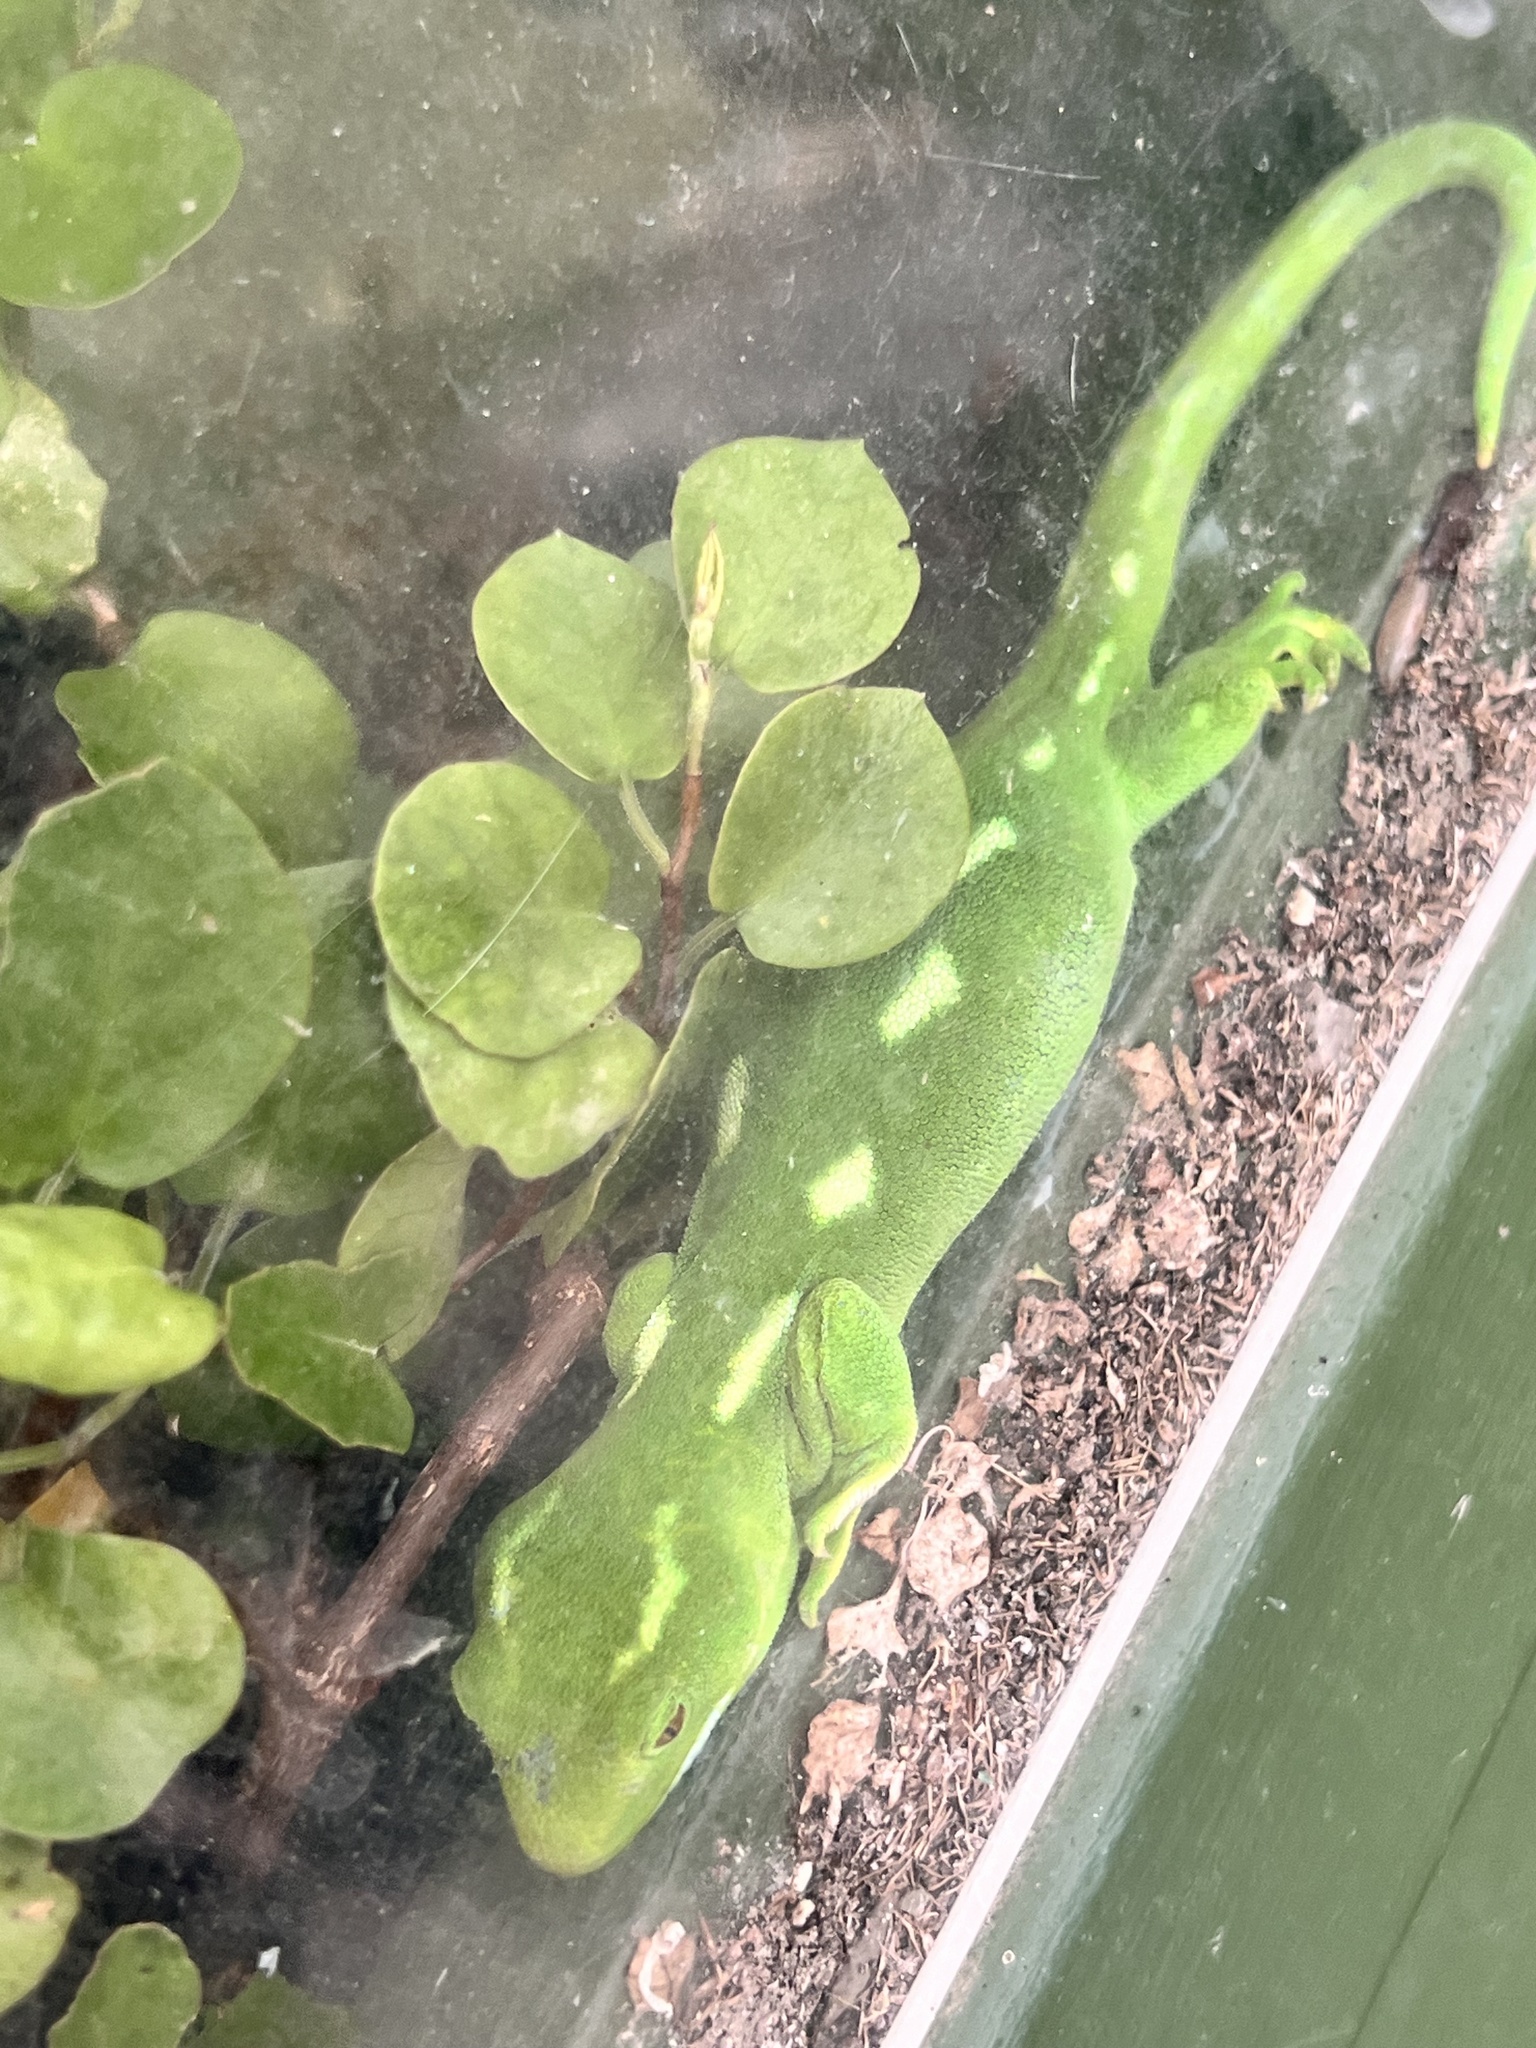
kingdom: Animalia
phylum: Chordata
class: Squamata
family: Diplodactylidae
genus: Naultinus
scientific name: Naultinus punctatus
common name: Wellington green gecko
